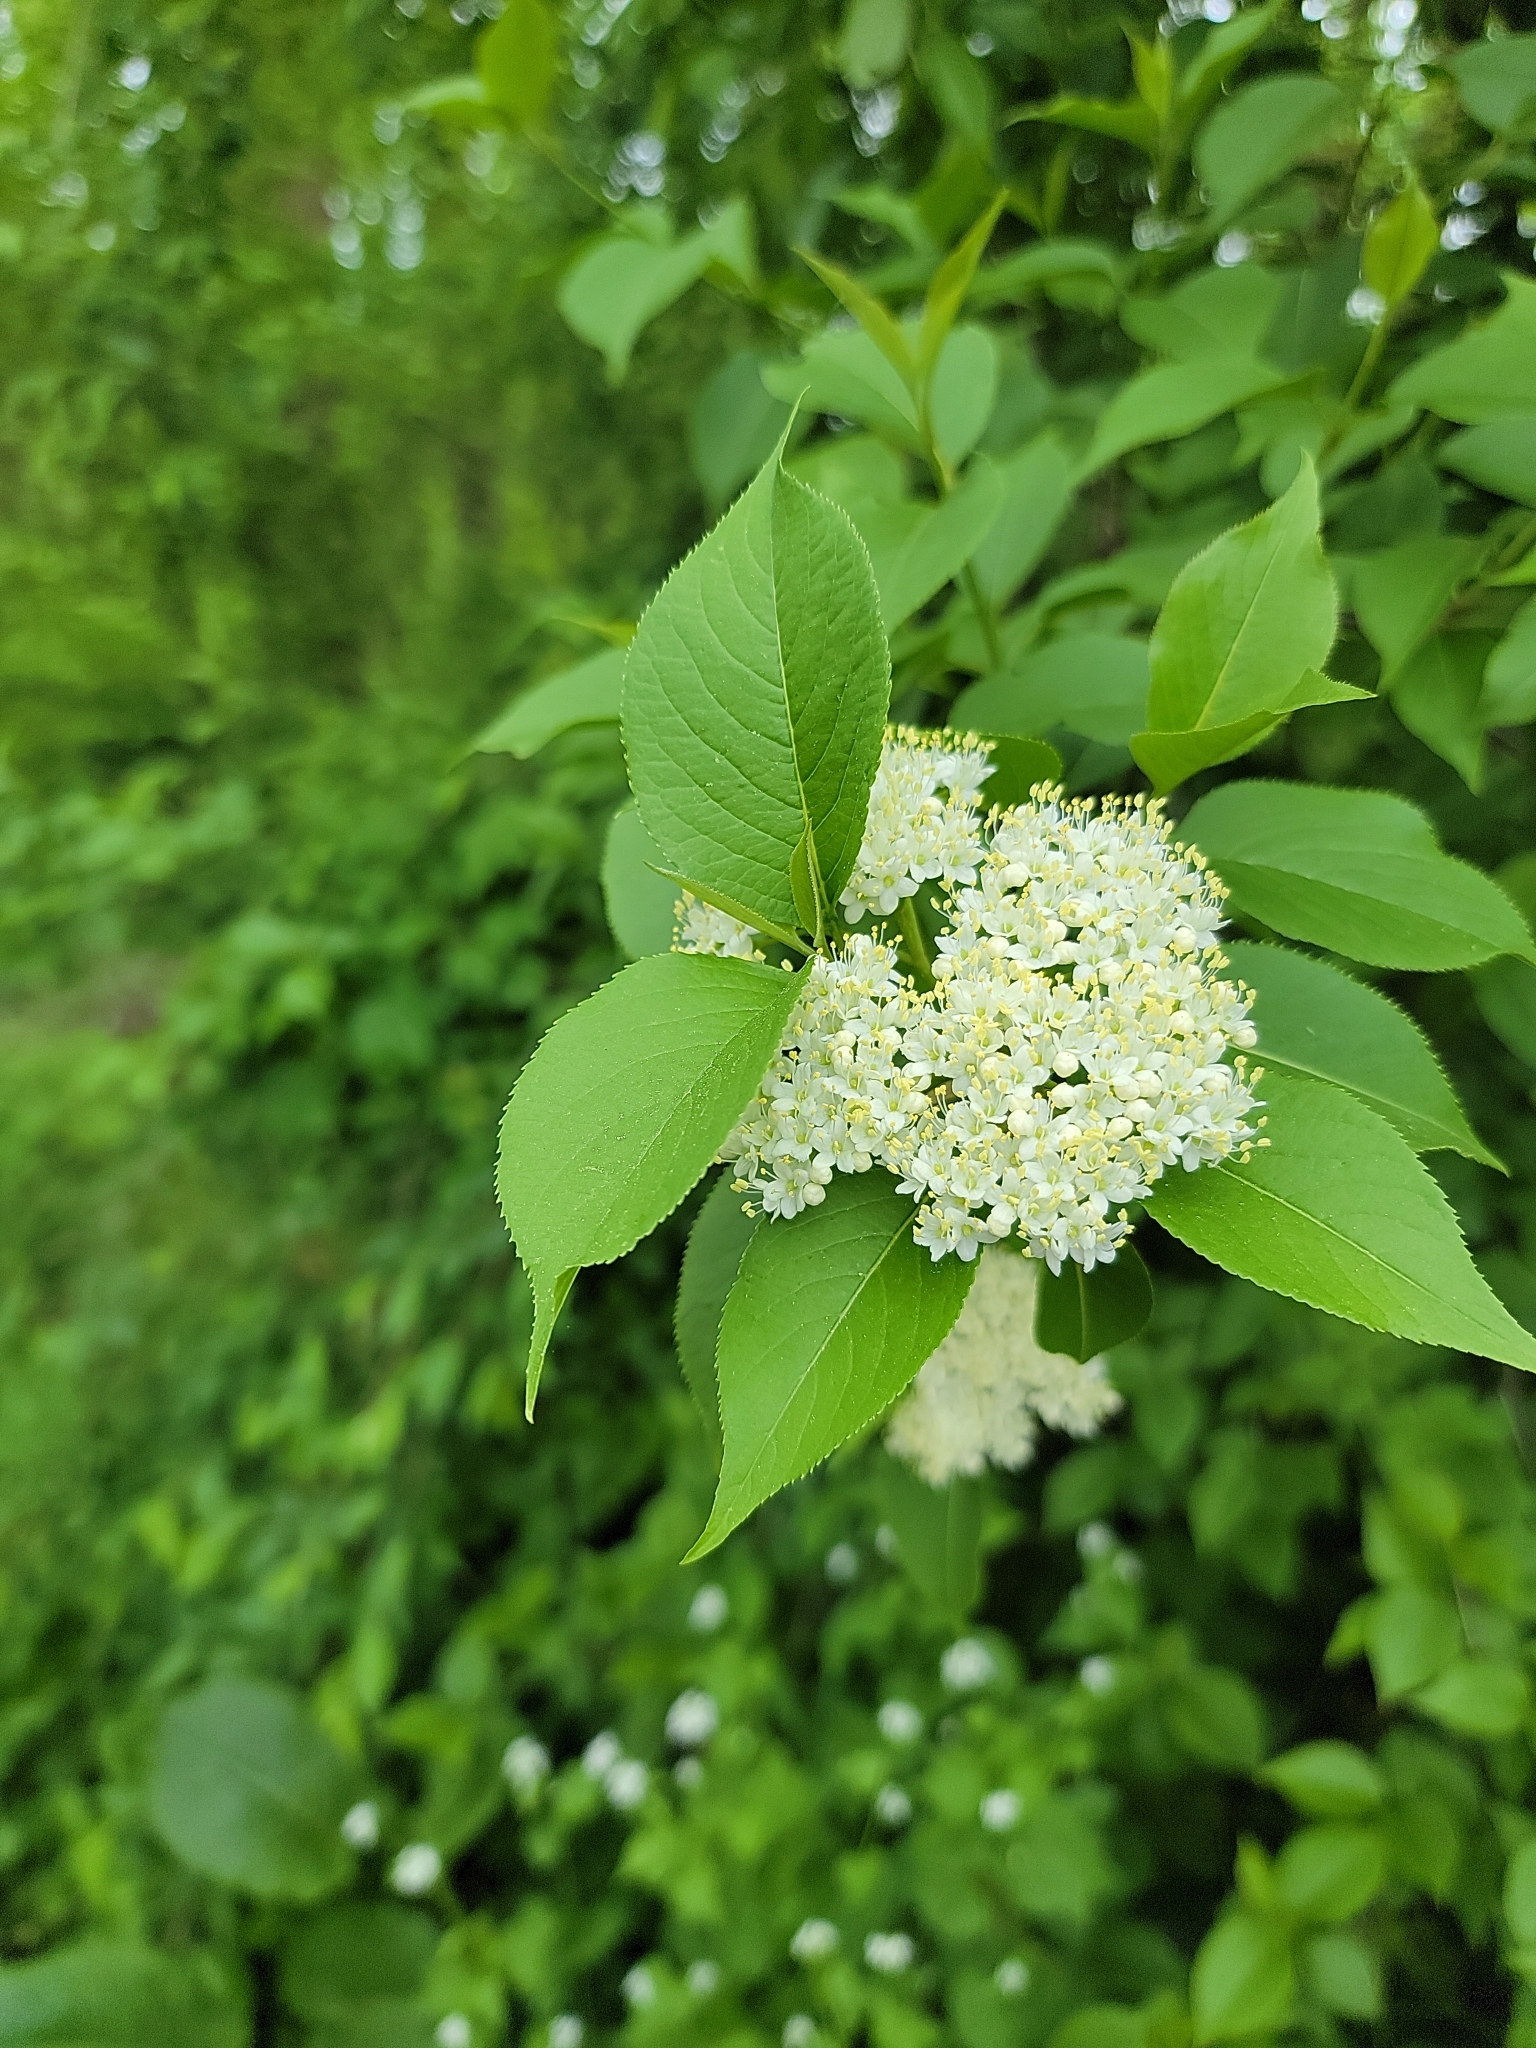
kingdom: Plantae
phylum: Tracheophyta
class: Magnoliopsida
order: Dipsacales
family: Viburnaceae
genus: Viburnum
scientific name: Viburnum lentago
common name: Black haw
